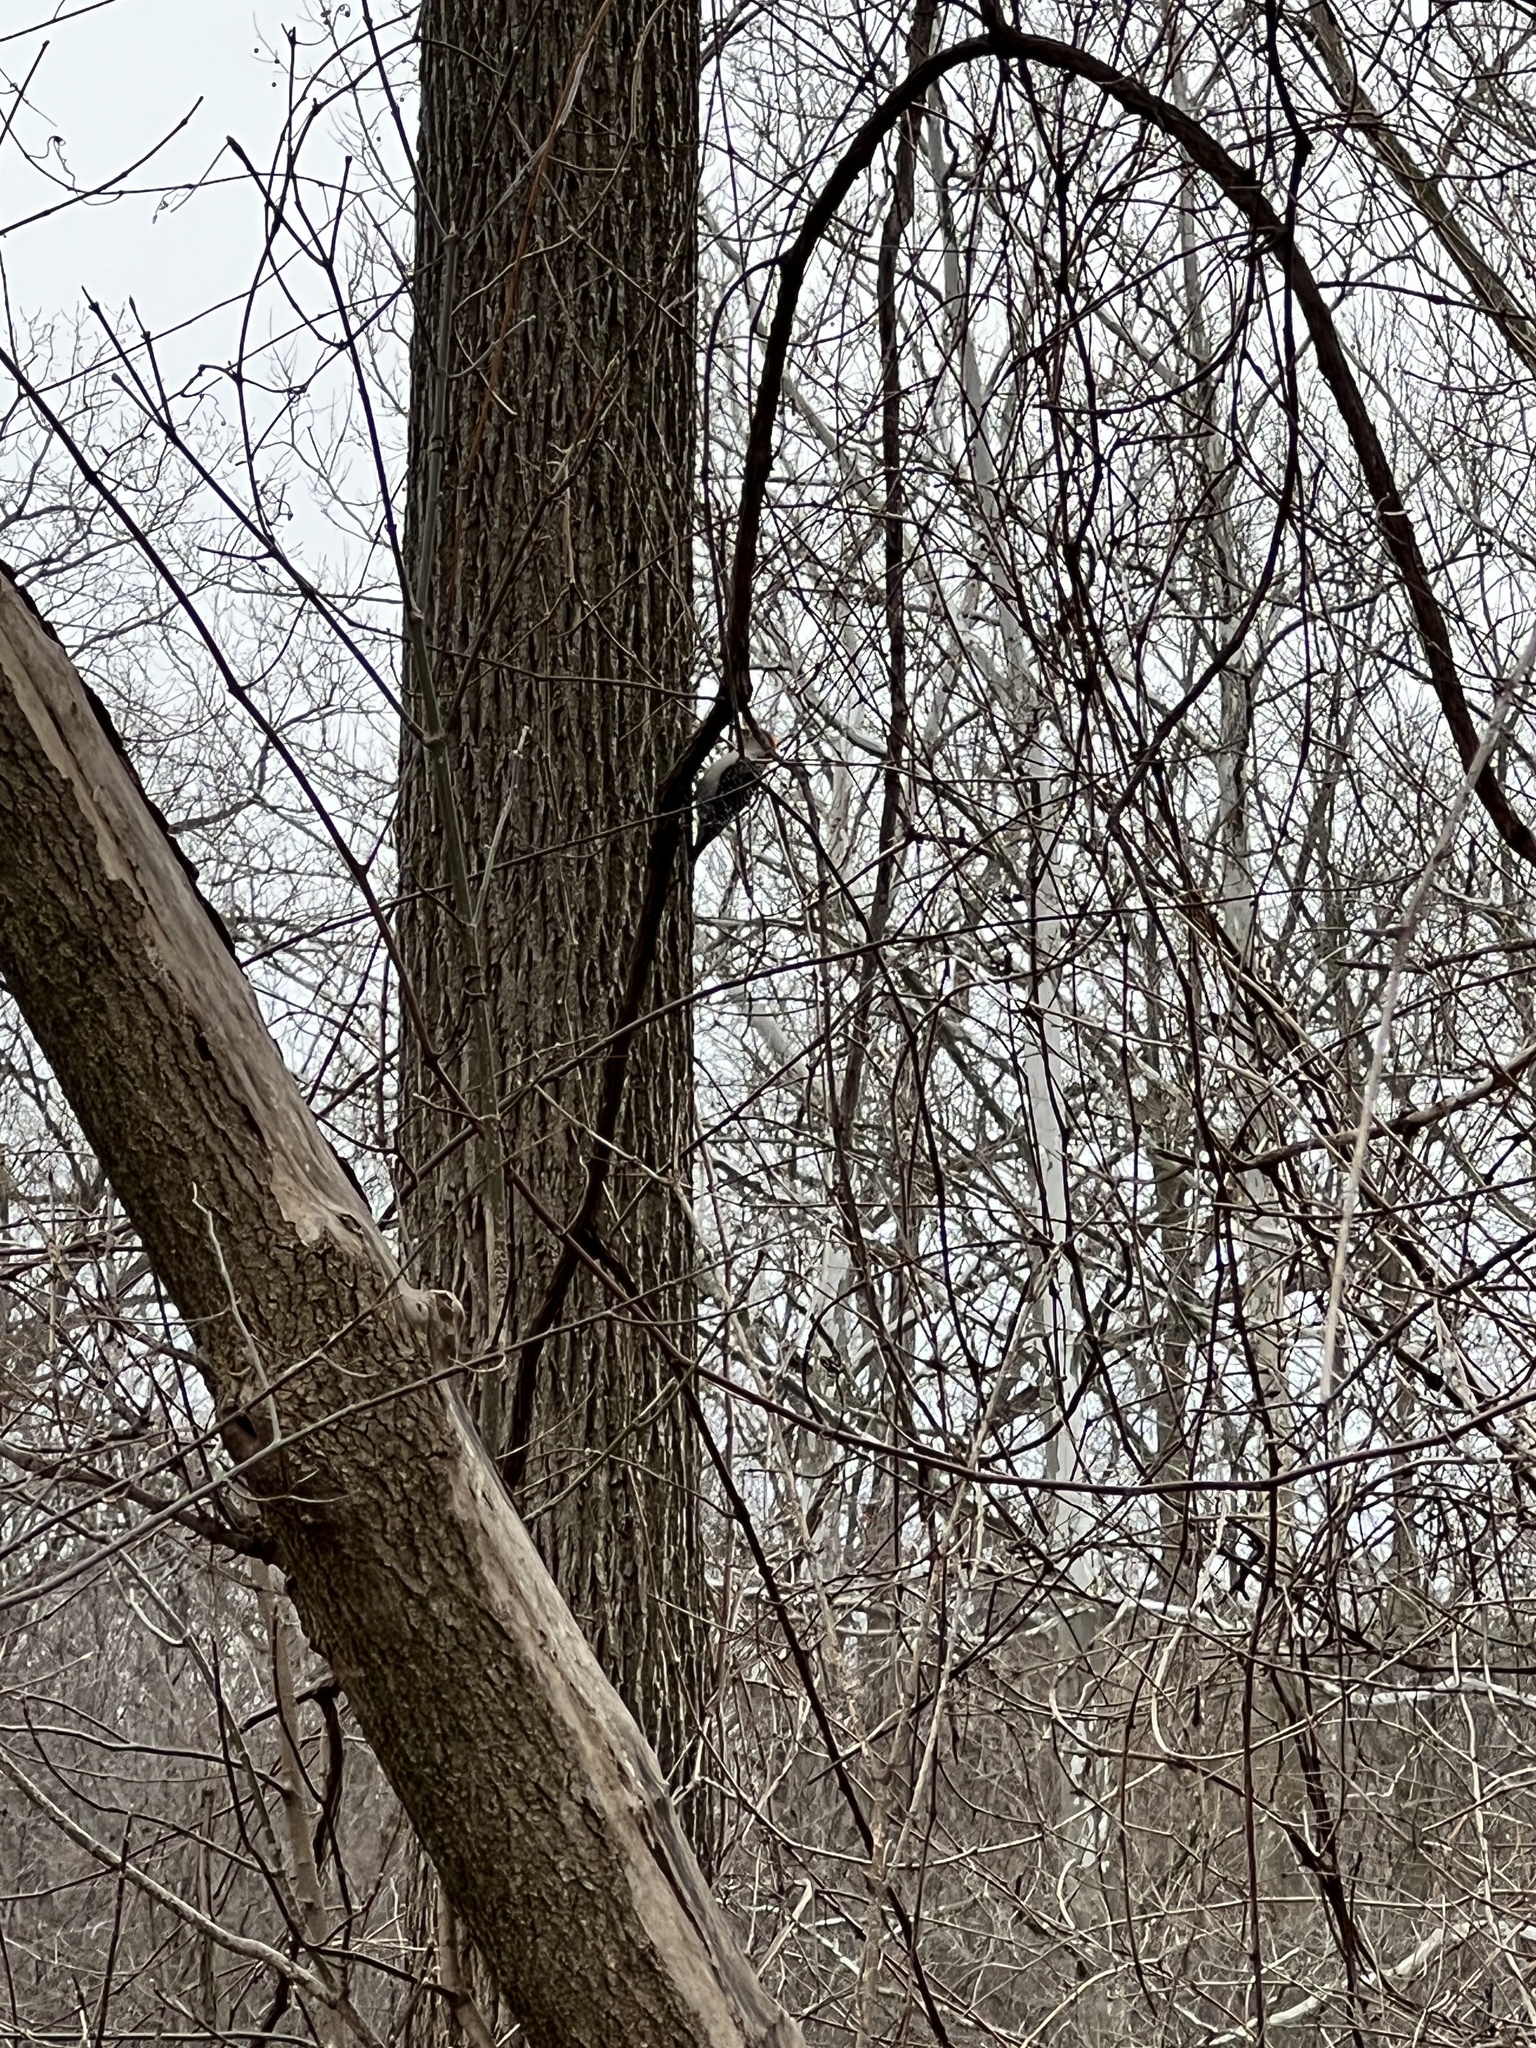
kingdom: Animalia
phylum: Chordata
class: Aves
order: Piciformes
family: Picidae
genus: Leuconotopicus
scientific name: Leuconotopicus villosus
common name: Hairy woodpecker
